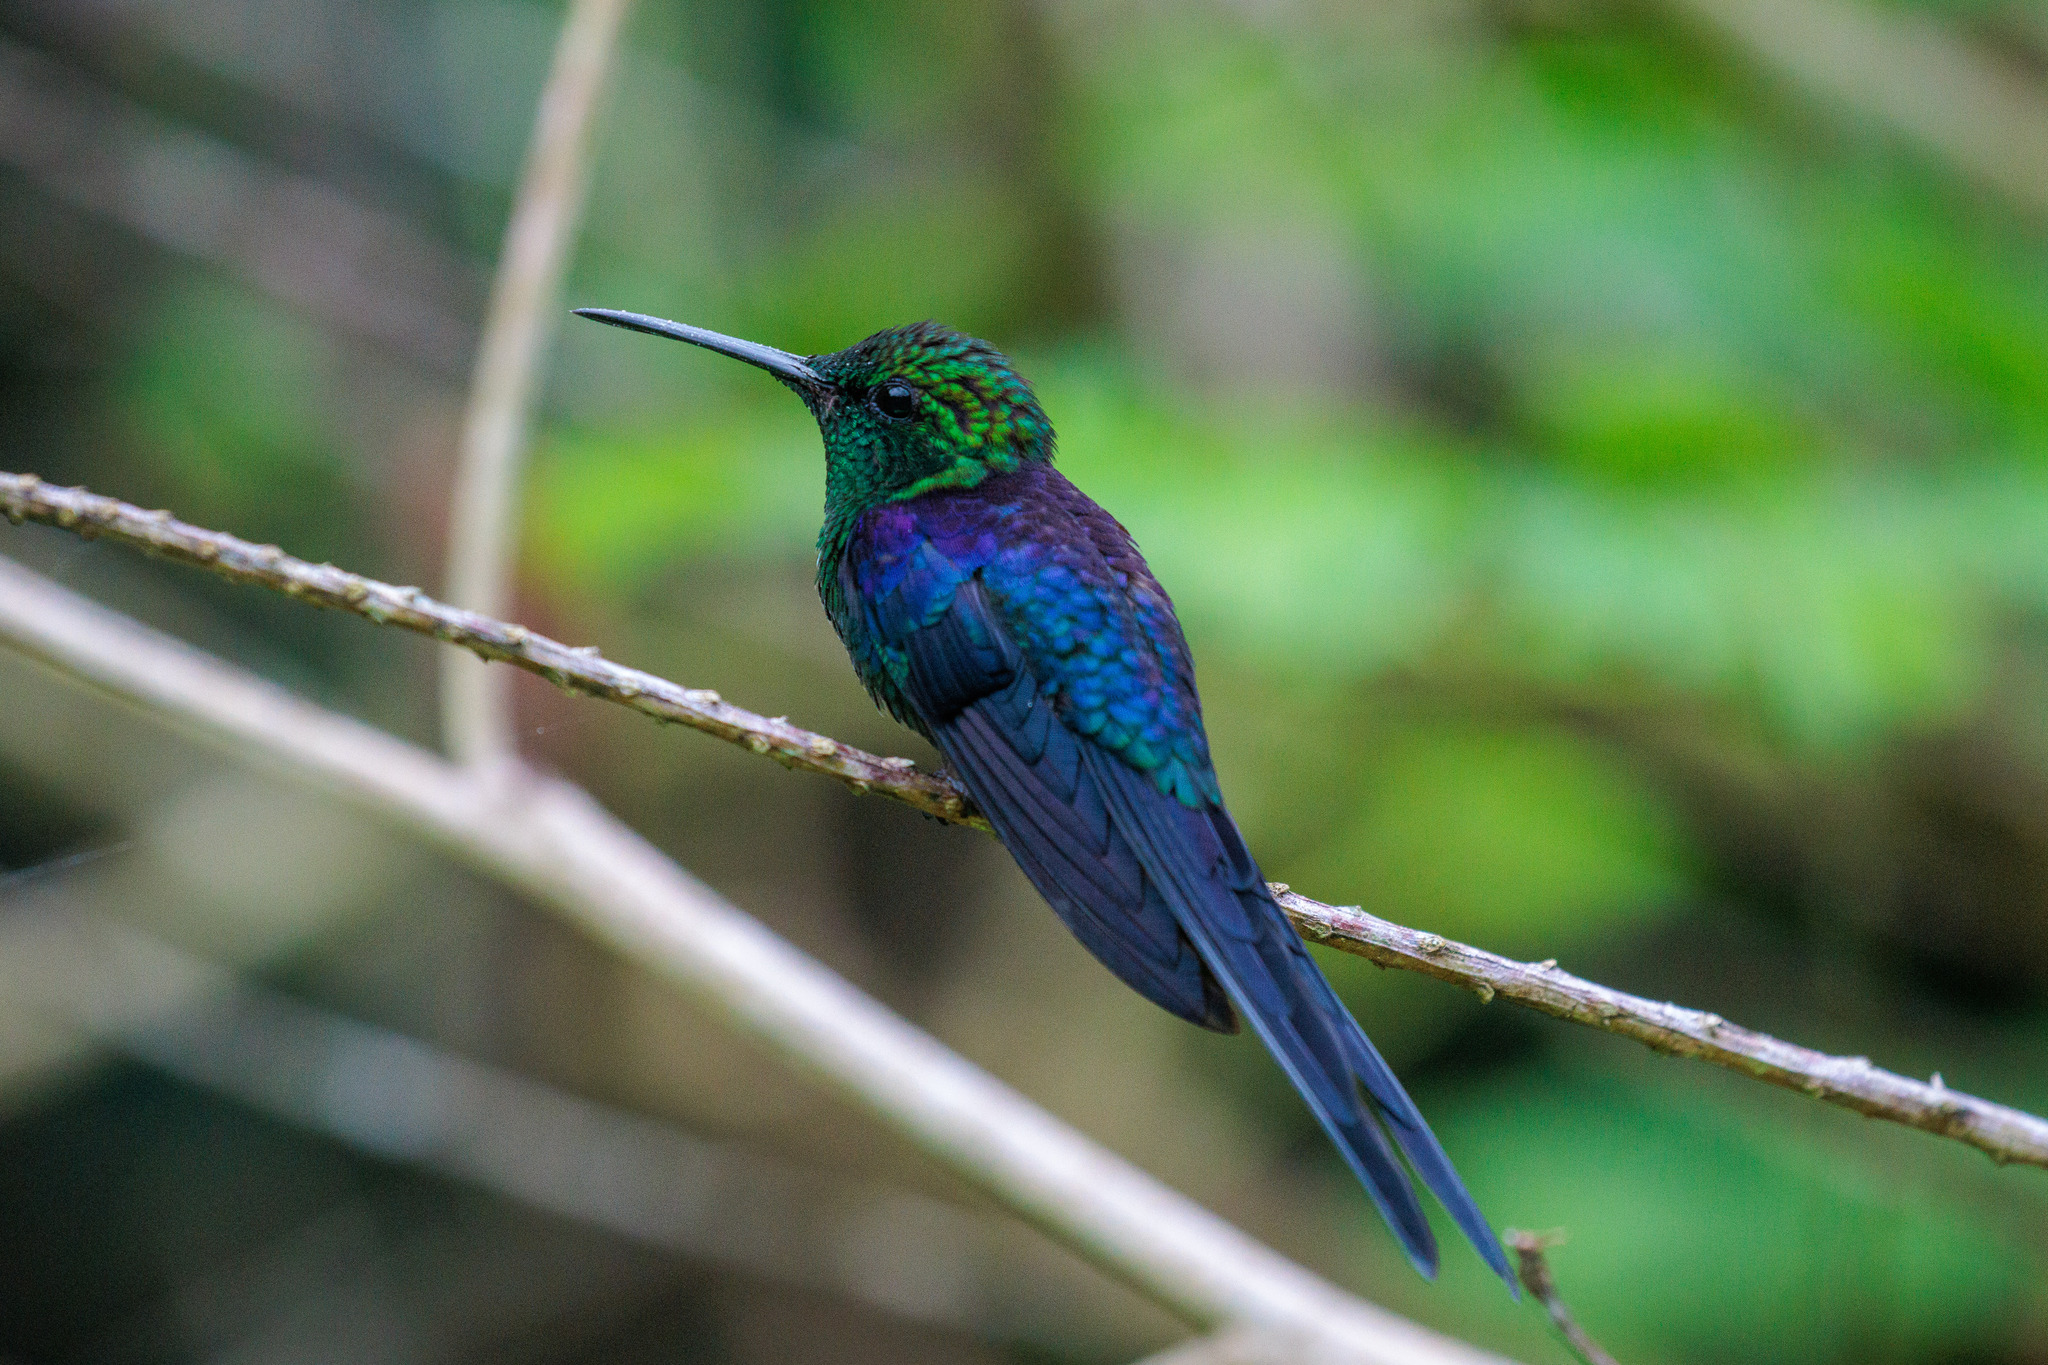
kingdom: Animalia
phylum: Chordata
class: Aves
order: Apodiformes
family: Trochilidae
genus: Thalurania
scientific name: Thalurania watertonii
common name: Long-tailed woodnymph
